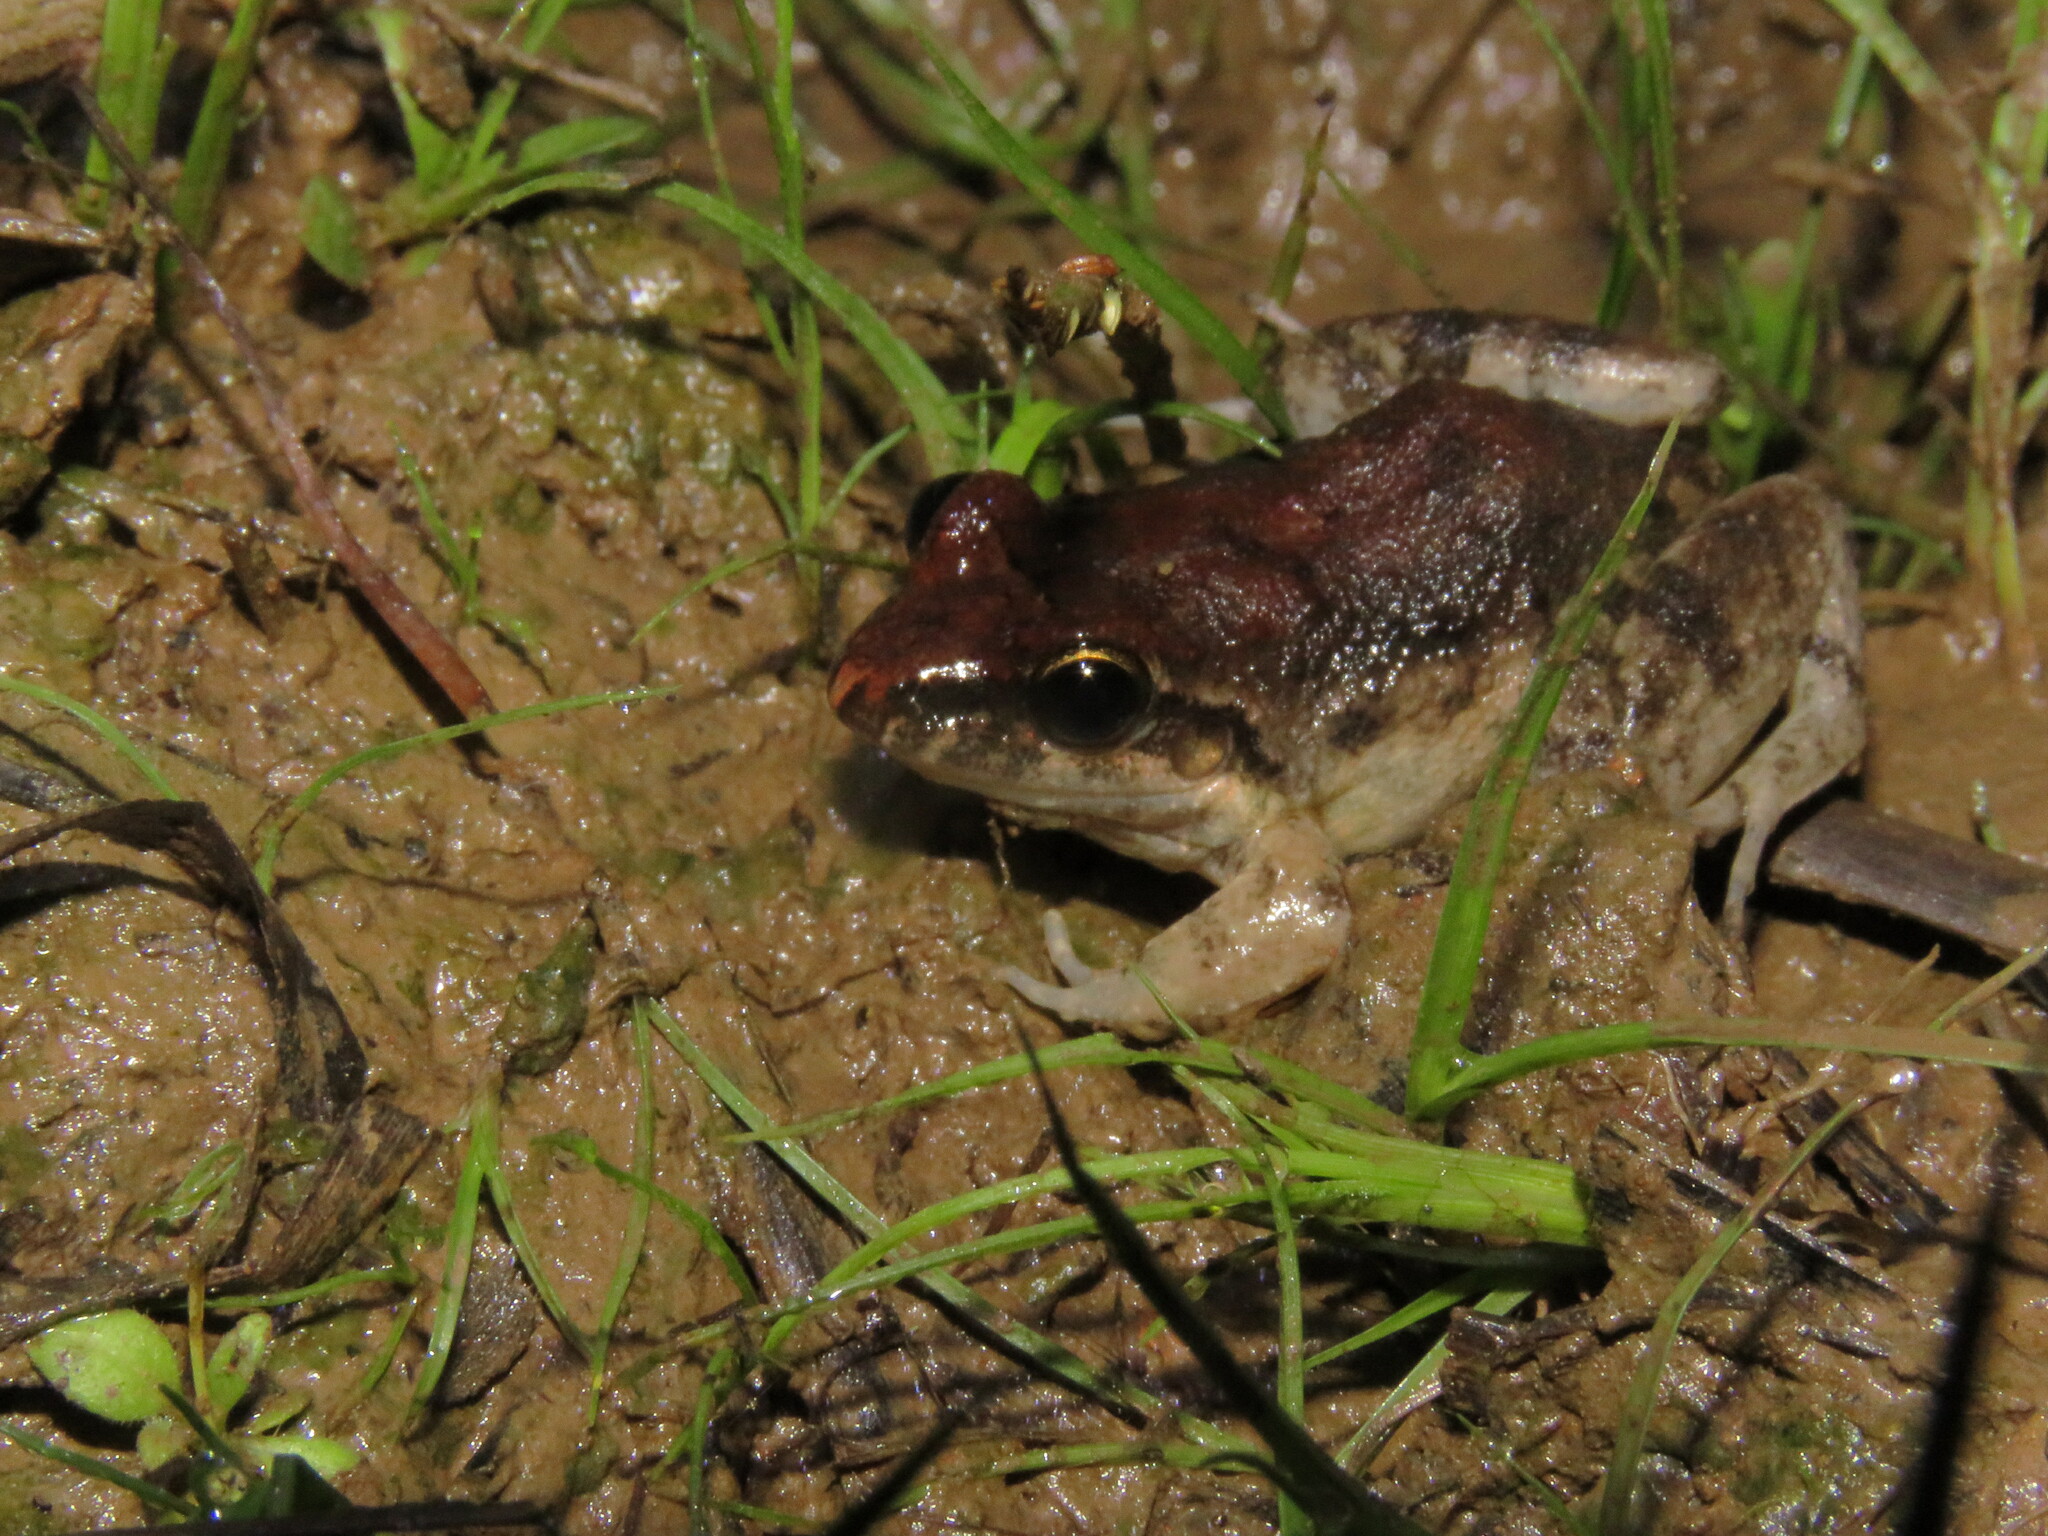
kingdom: Animalia
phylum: Chordata
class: Amphibia
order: Anura
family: Leptodactylidae
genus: Leptodactylus
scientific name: Leptodactylus petersii
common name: Peters' thin-toed frog
